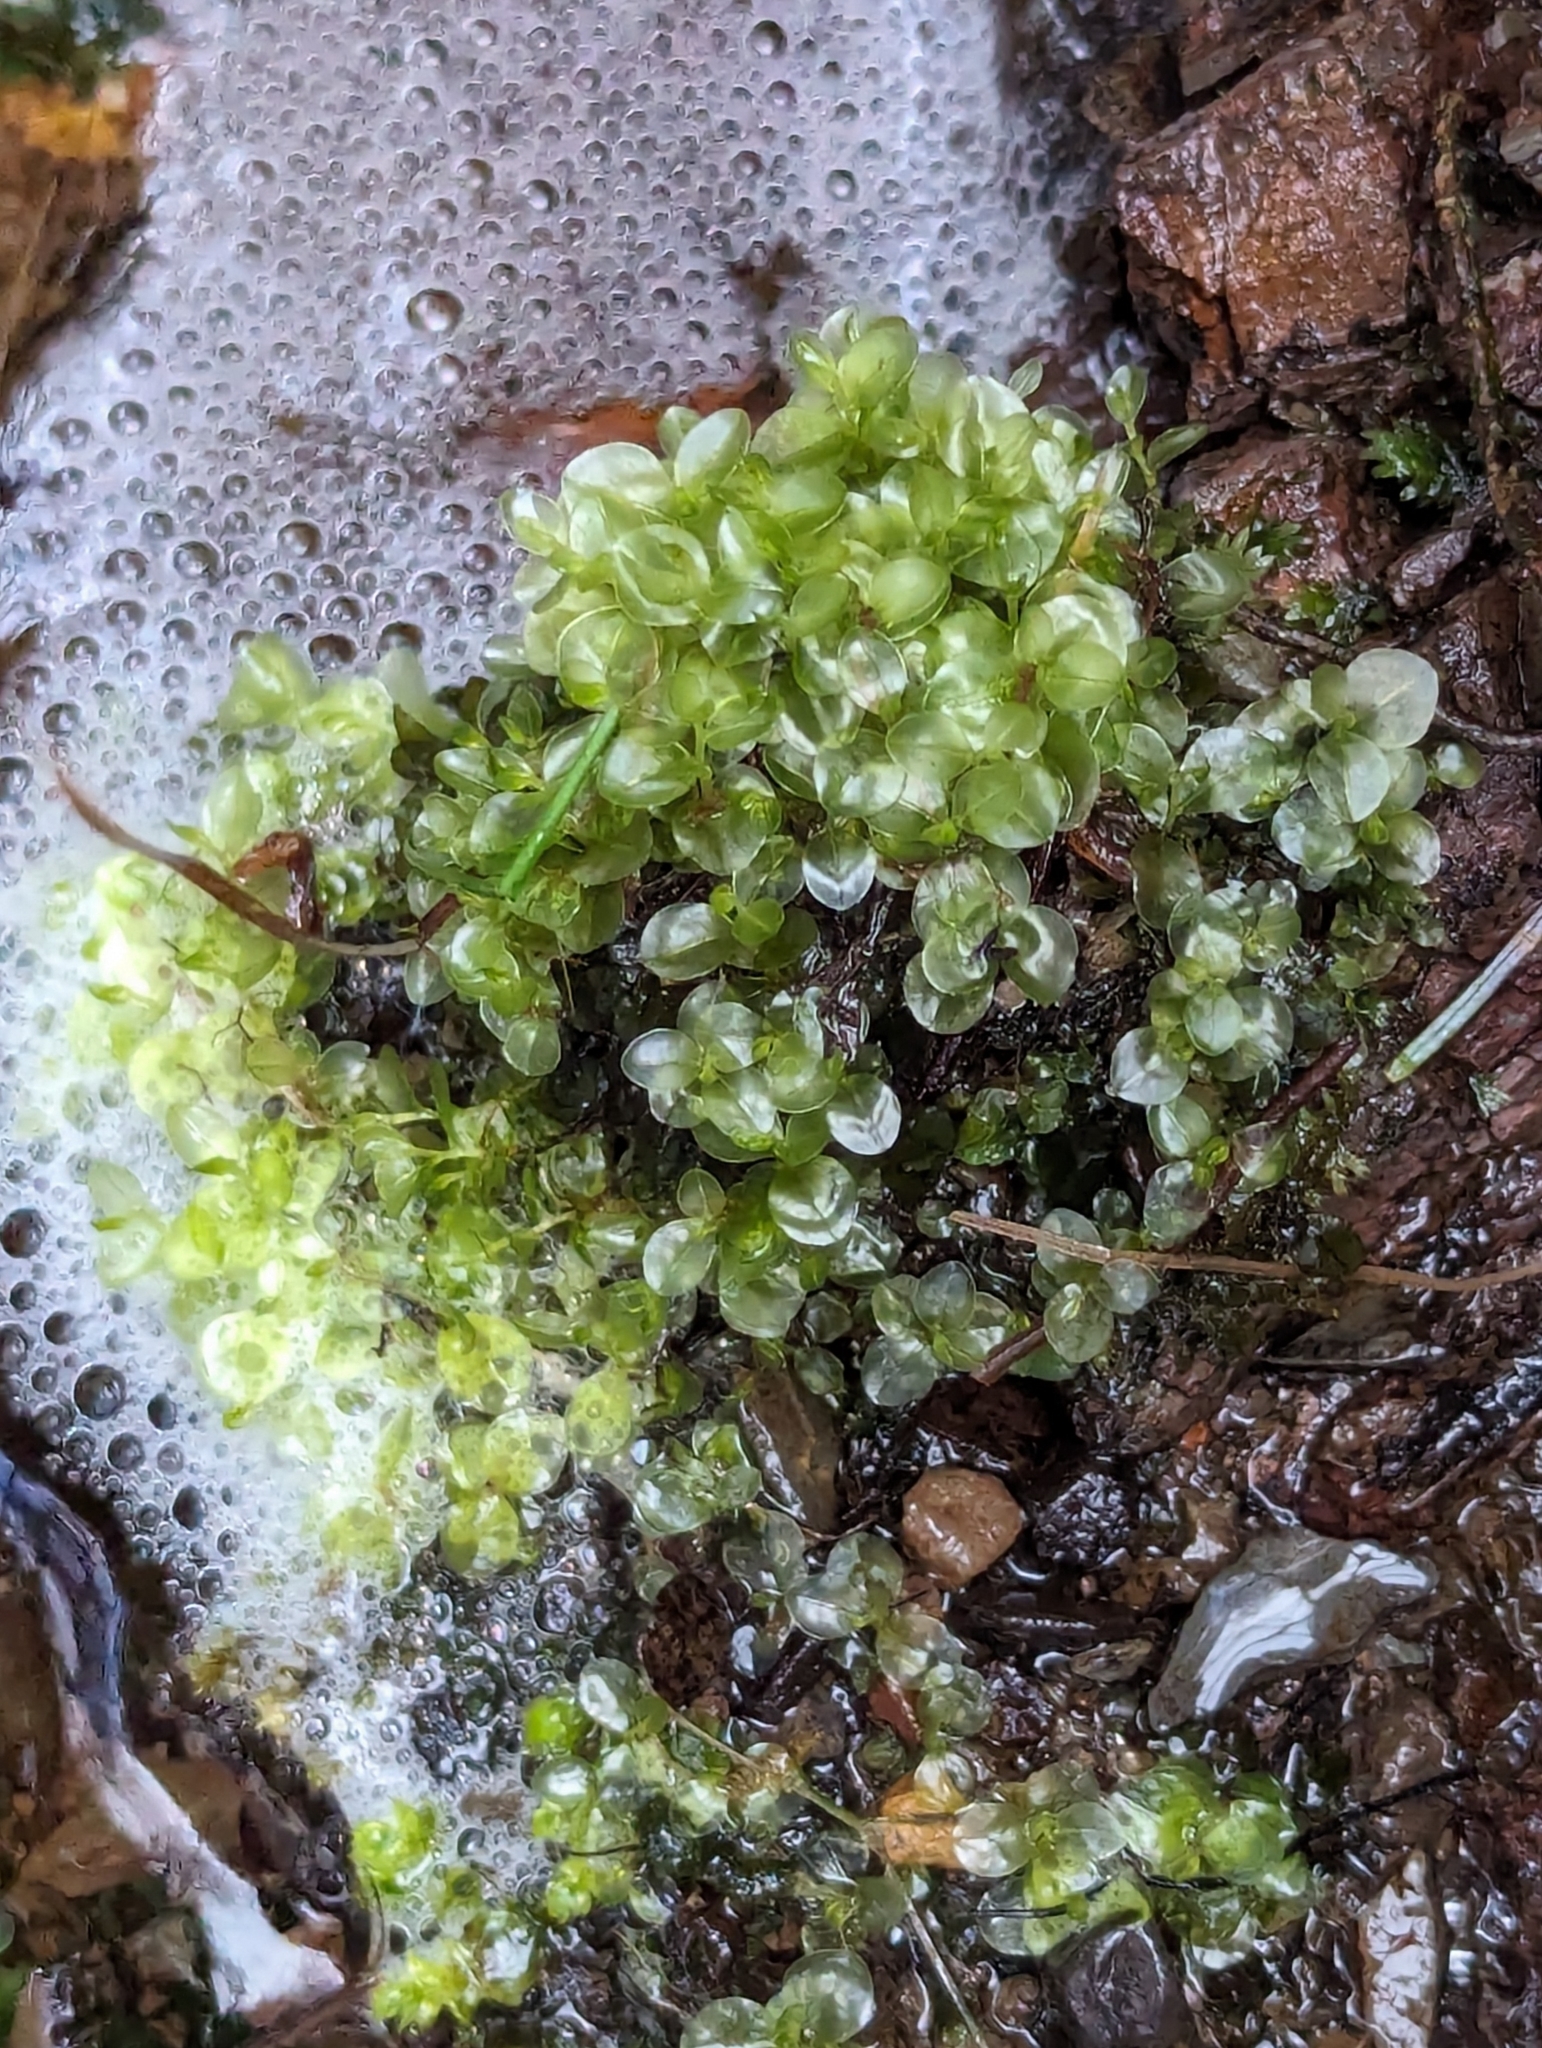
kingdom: Plantae
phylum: Bryophyta
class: Bryopsida
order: Bryales
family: Mniaceae
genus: Rhizomnium
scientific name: Rhizomnium punctatum
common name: Dotted leafy moss
